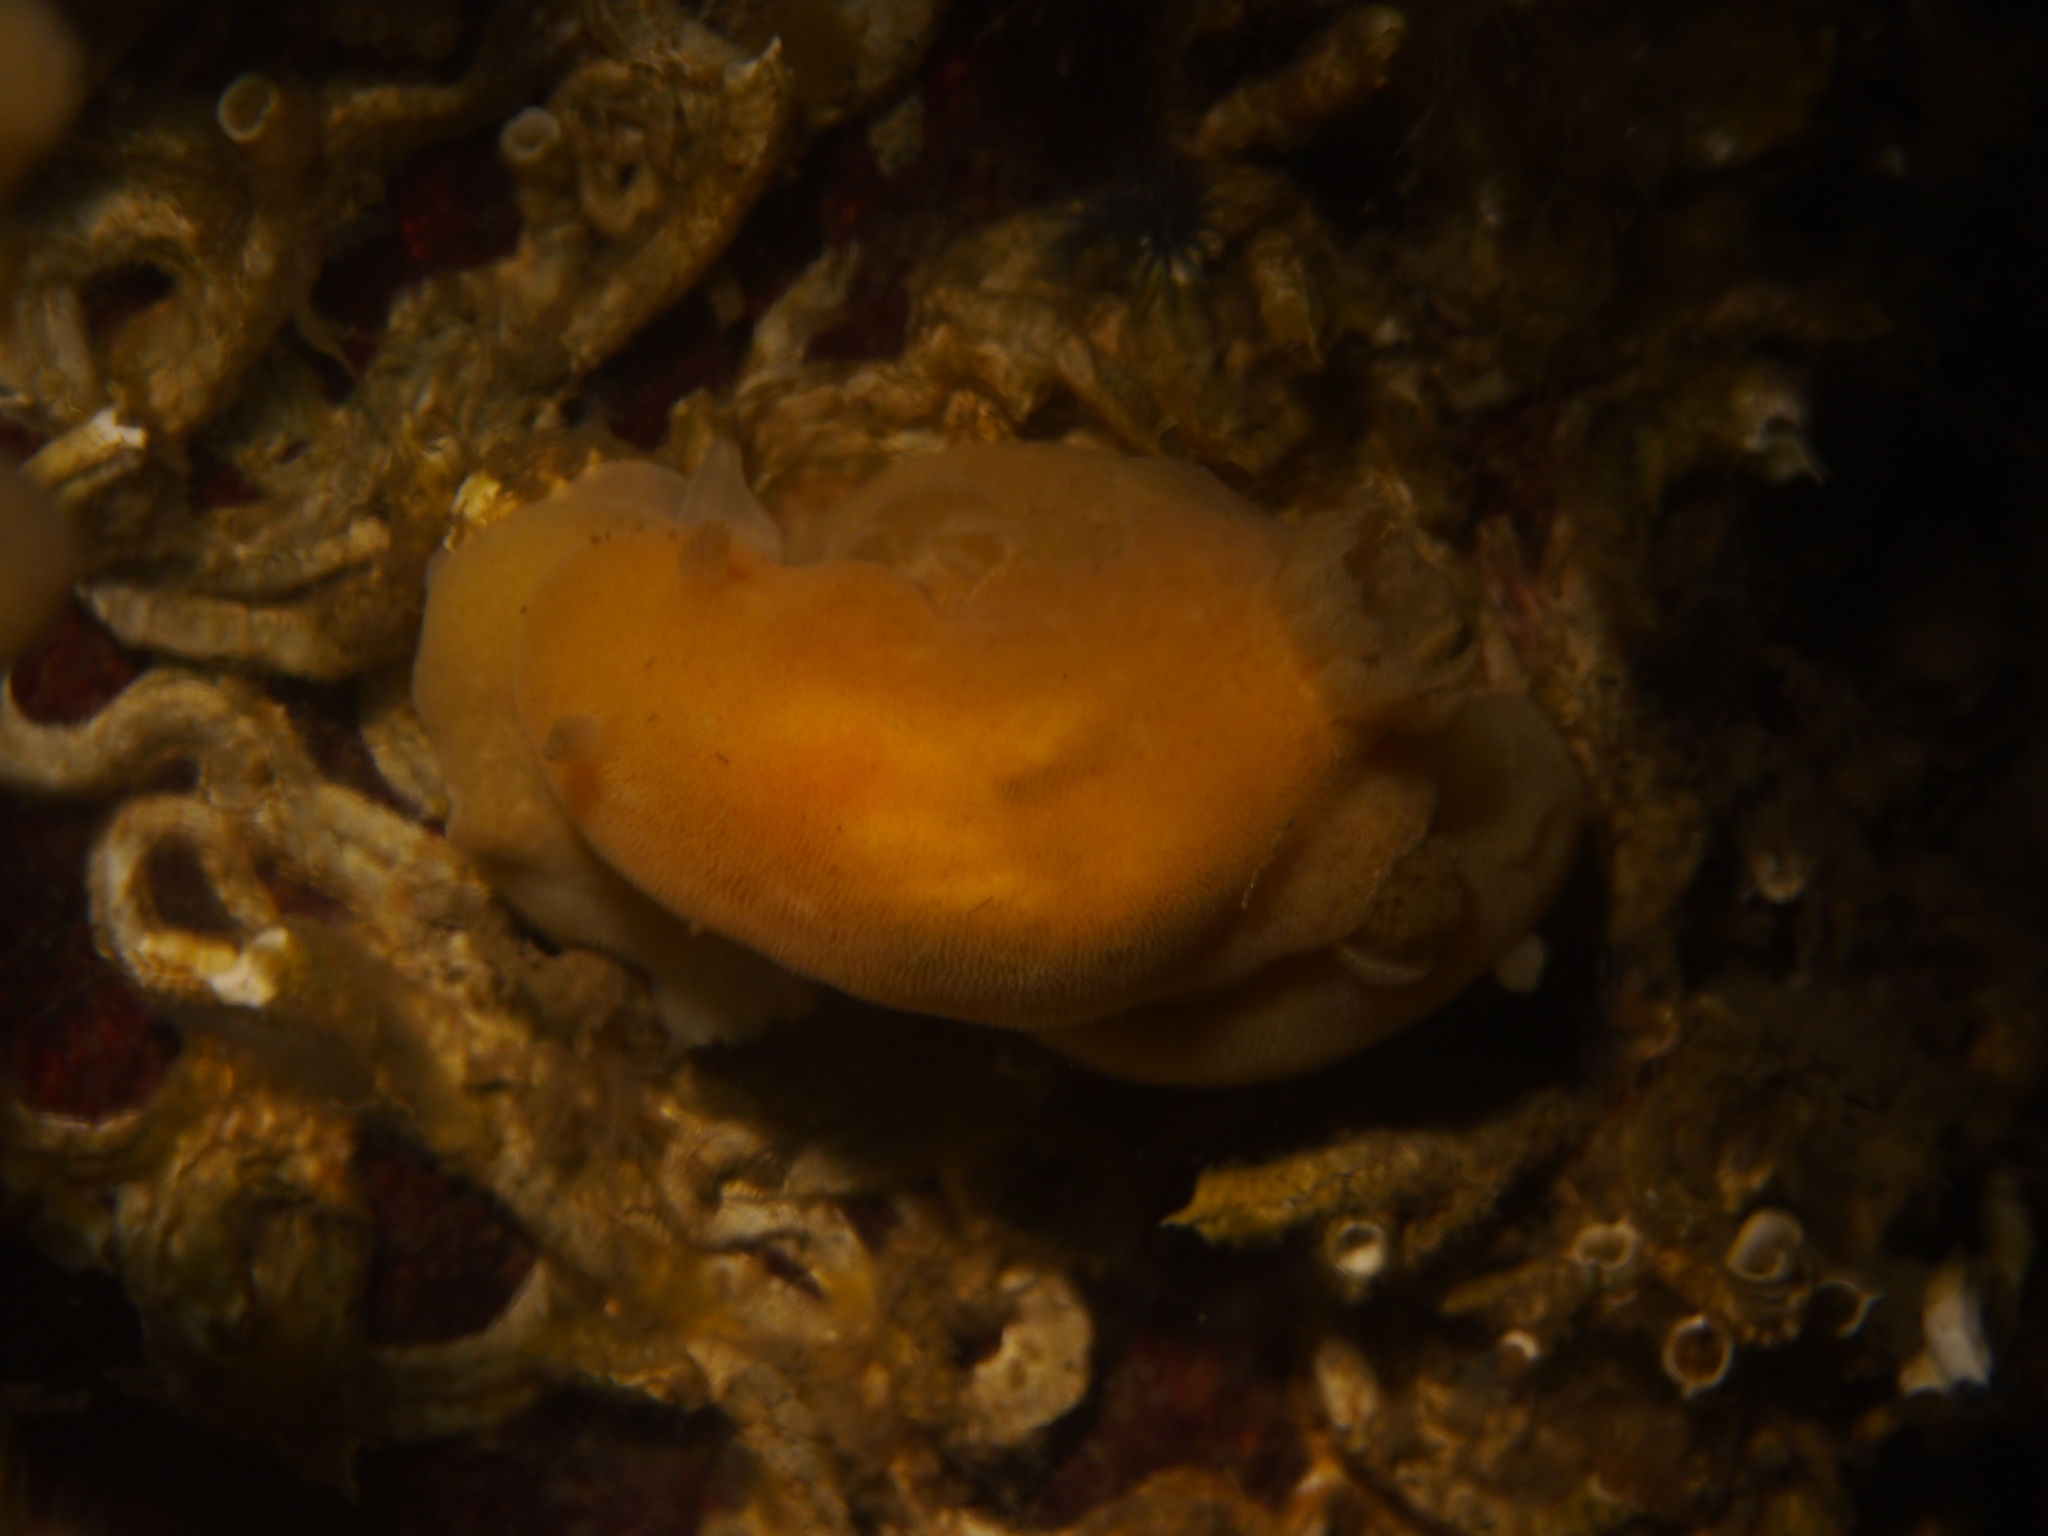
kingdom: Animalia
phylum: Mollusca
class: Gastropoda
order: Nudibranchia
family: Discodorididae
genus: Jorunna
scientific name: Jorunna tomentosa
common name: Grey sea slug
